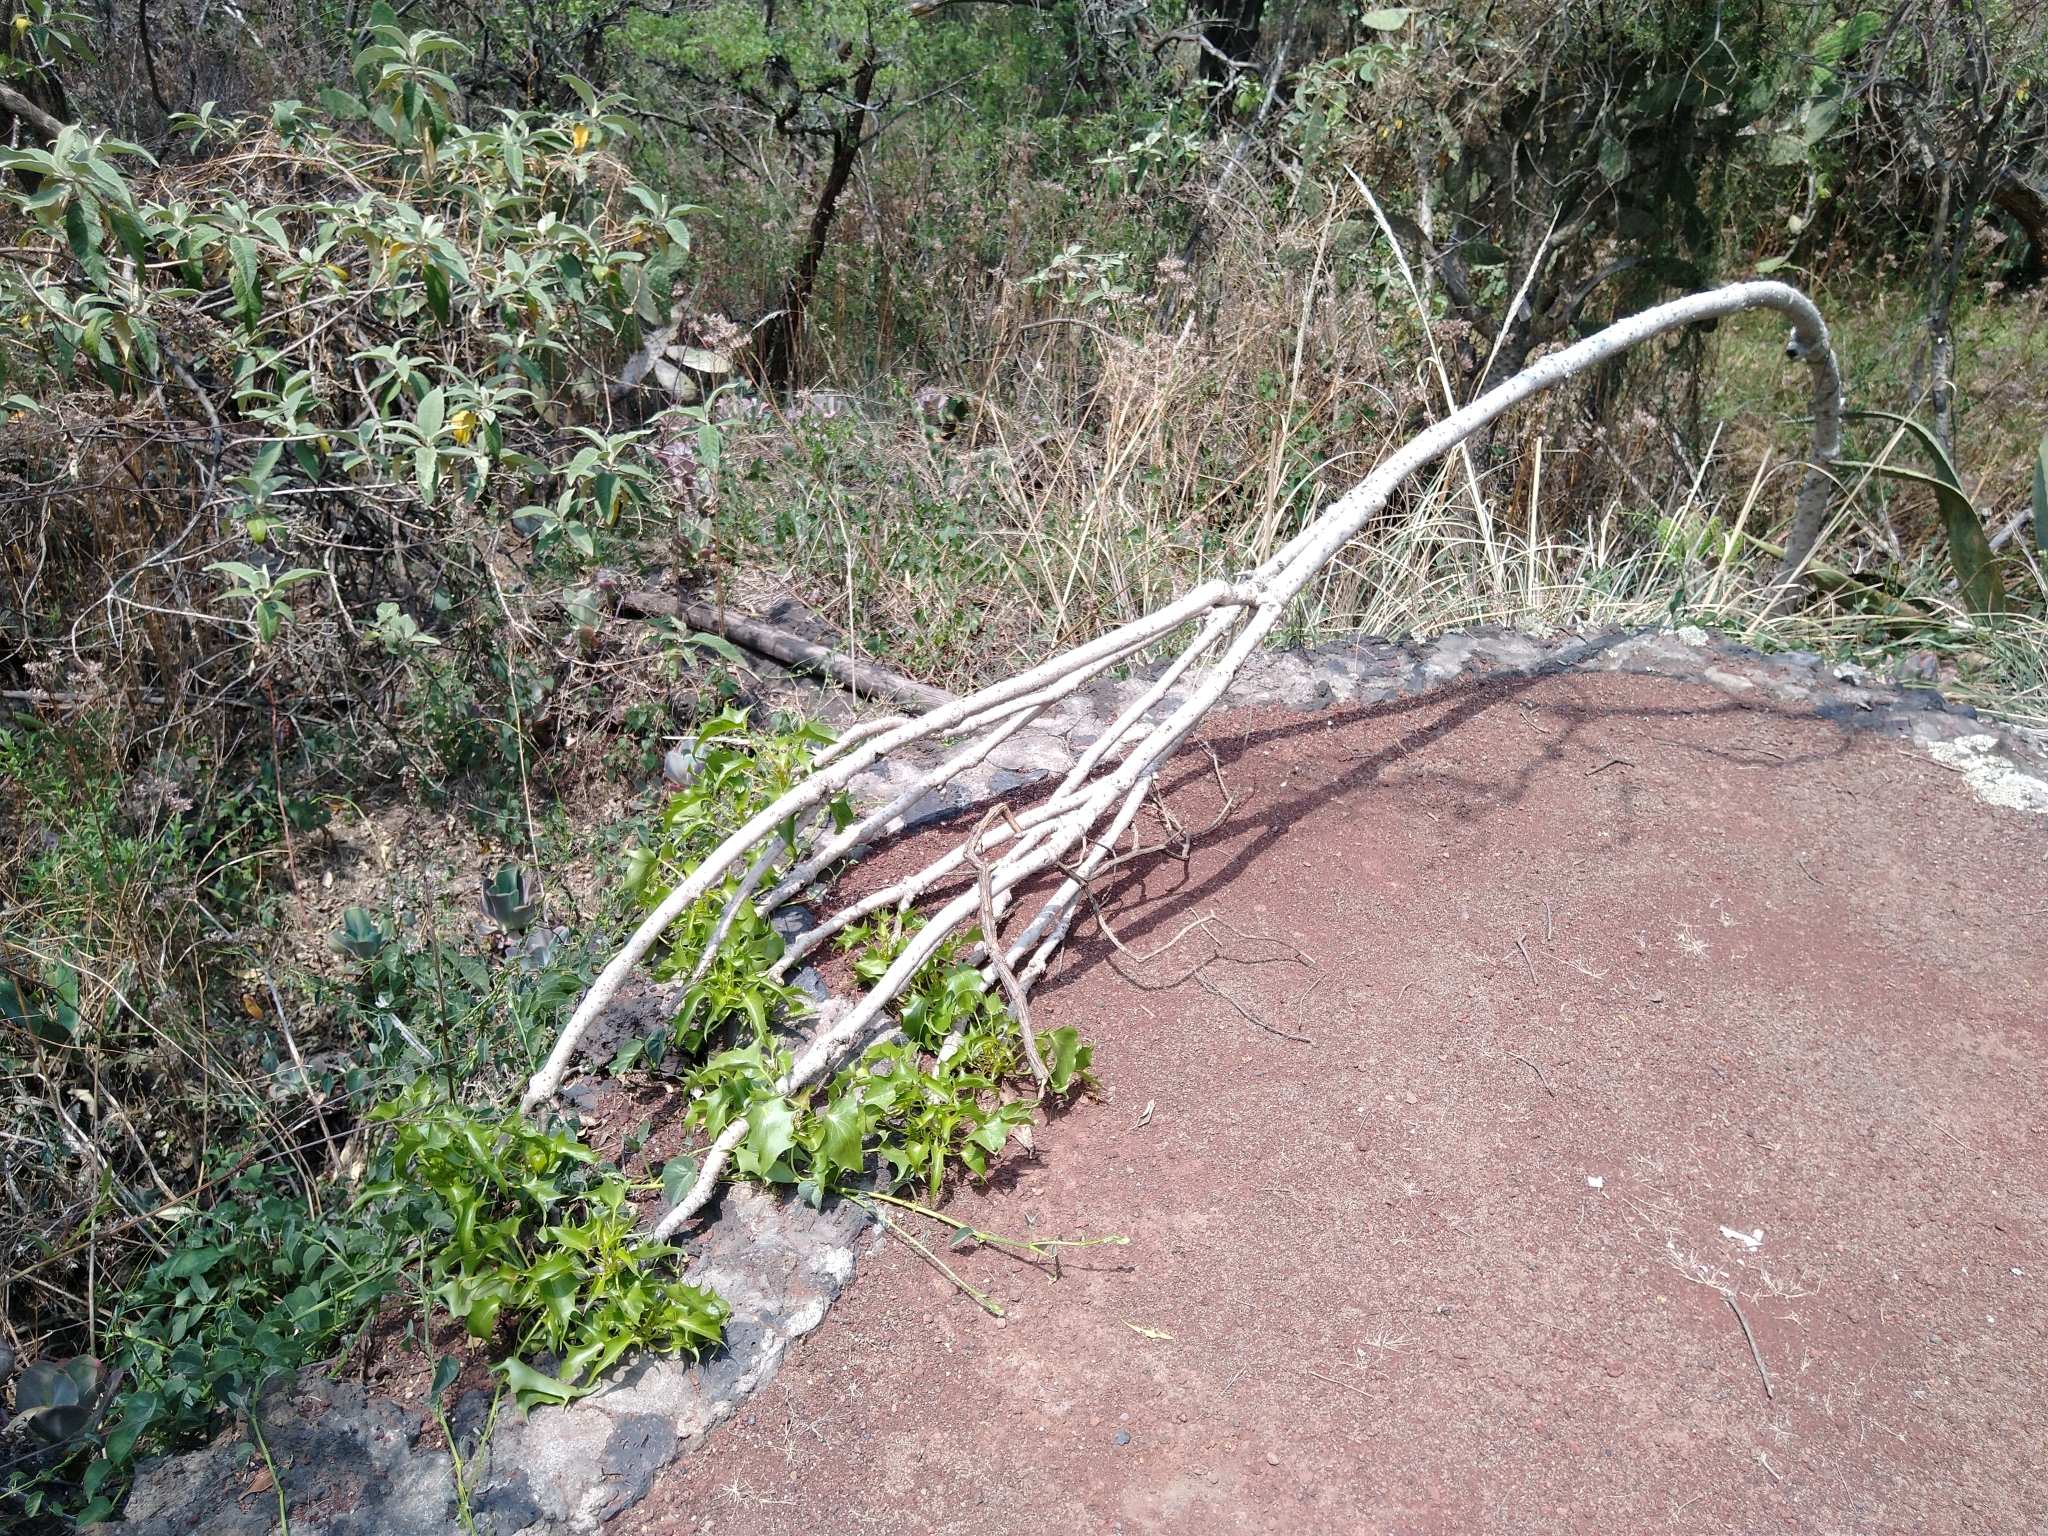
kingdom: Plantae
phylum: Tracheophyta
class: Magnoliopsida
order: Asterales
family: Asteraceae
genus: Pittocaulon
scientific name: Pittocaulon praecox
